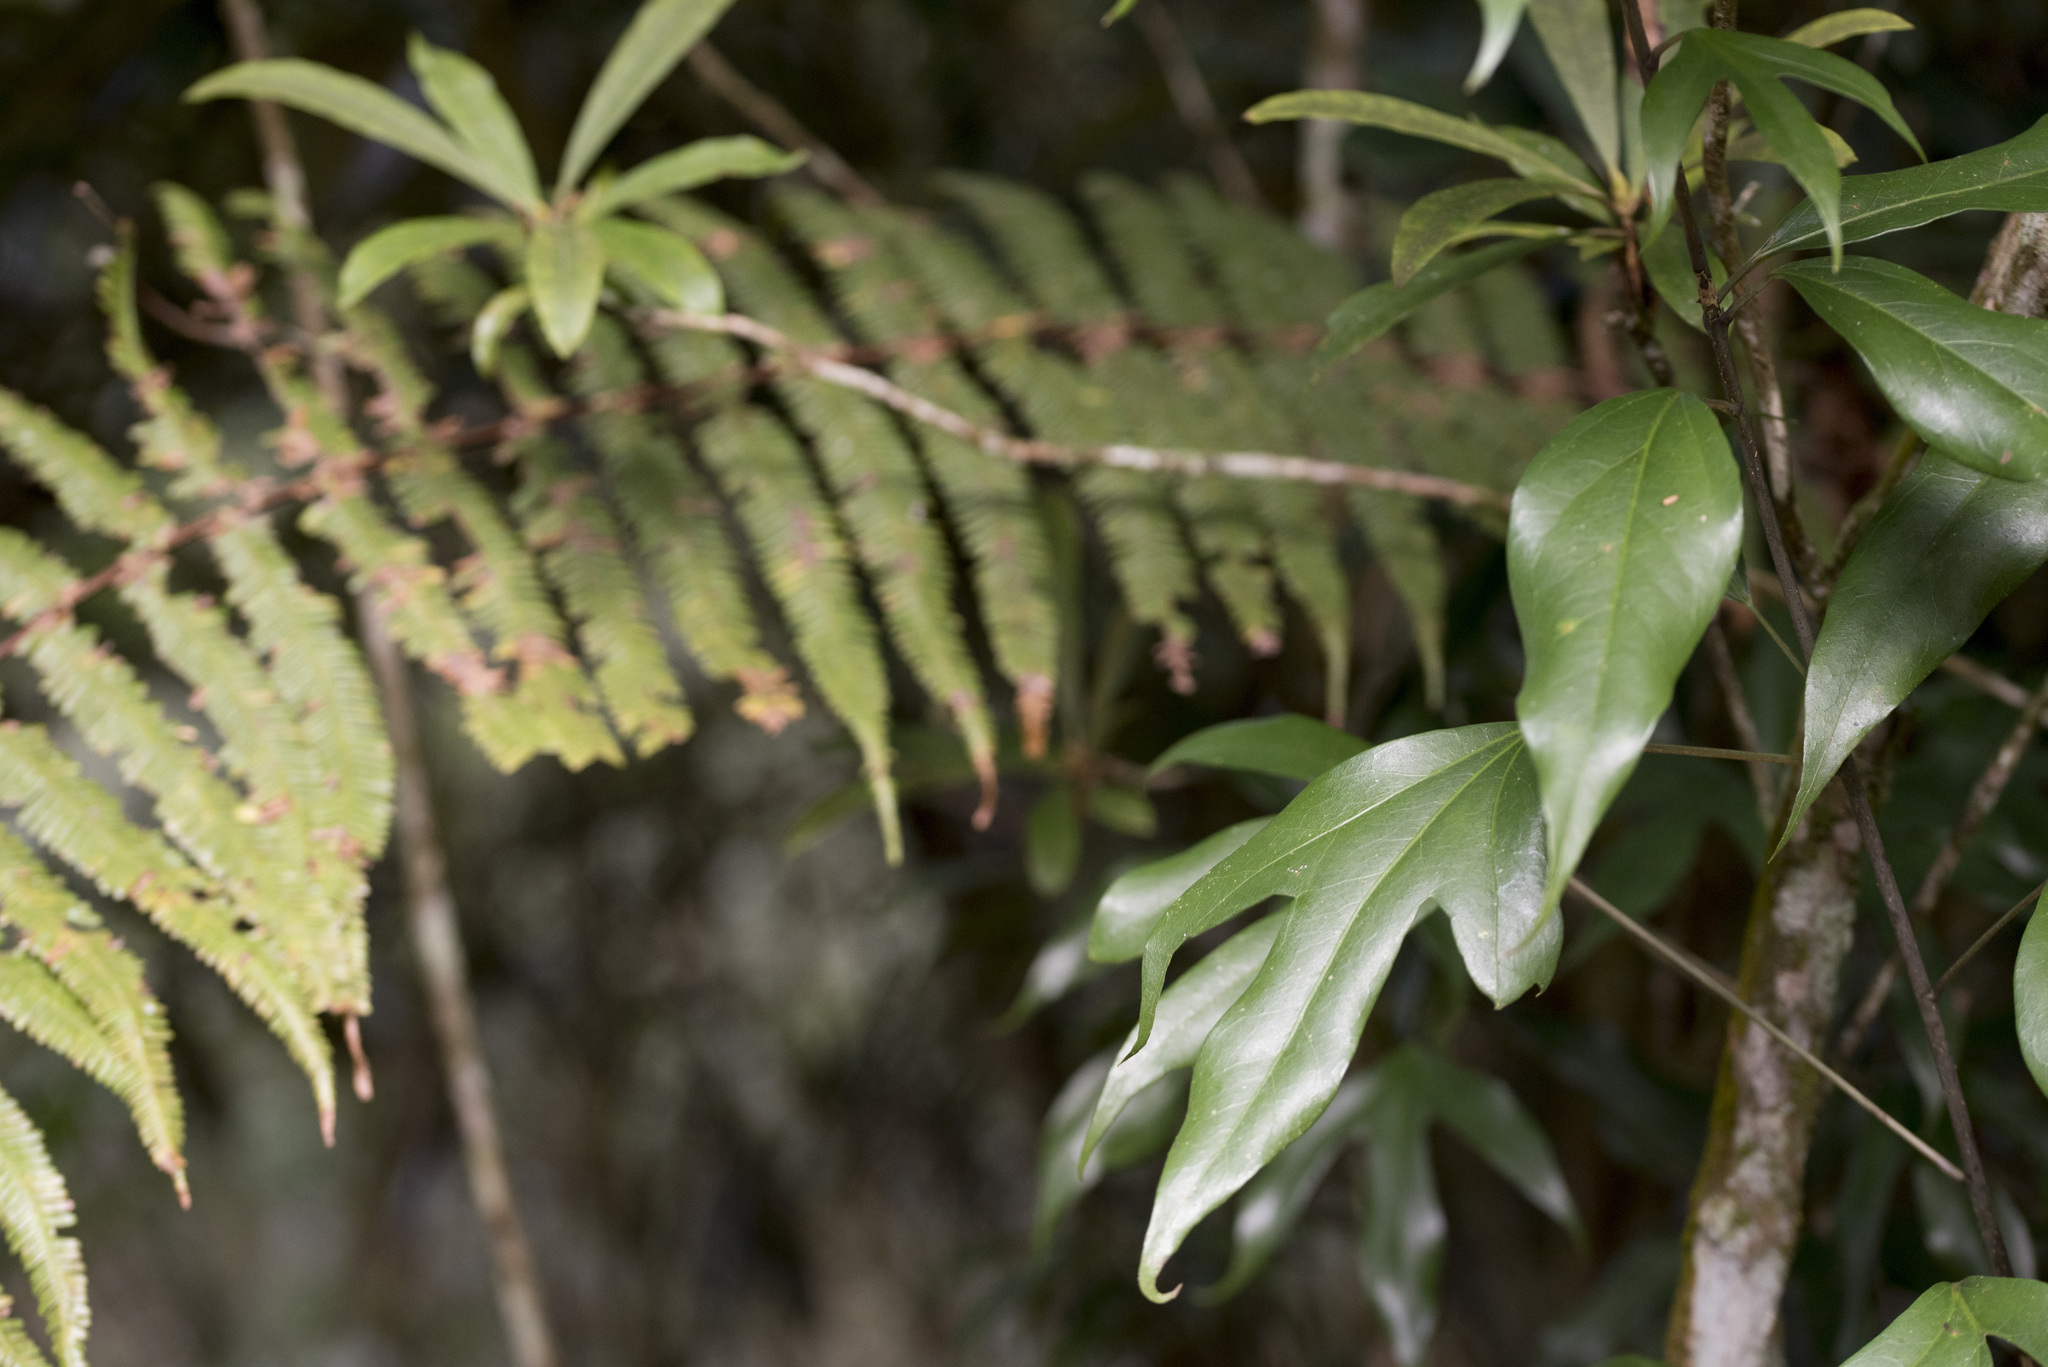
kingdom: Plantae
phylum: Tracheophyta
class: Magnoliopsida
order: Apiales
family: Araliaceae
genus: Dendropanax
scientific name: Dendropanax dentiger
